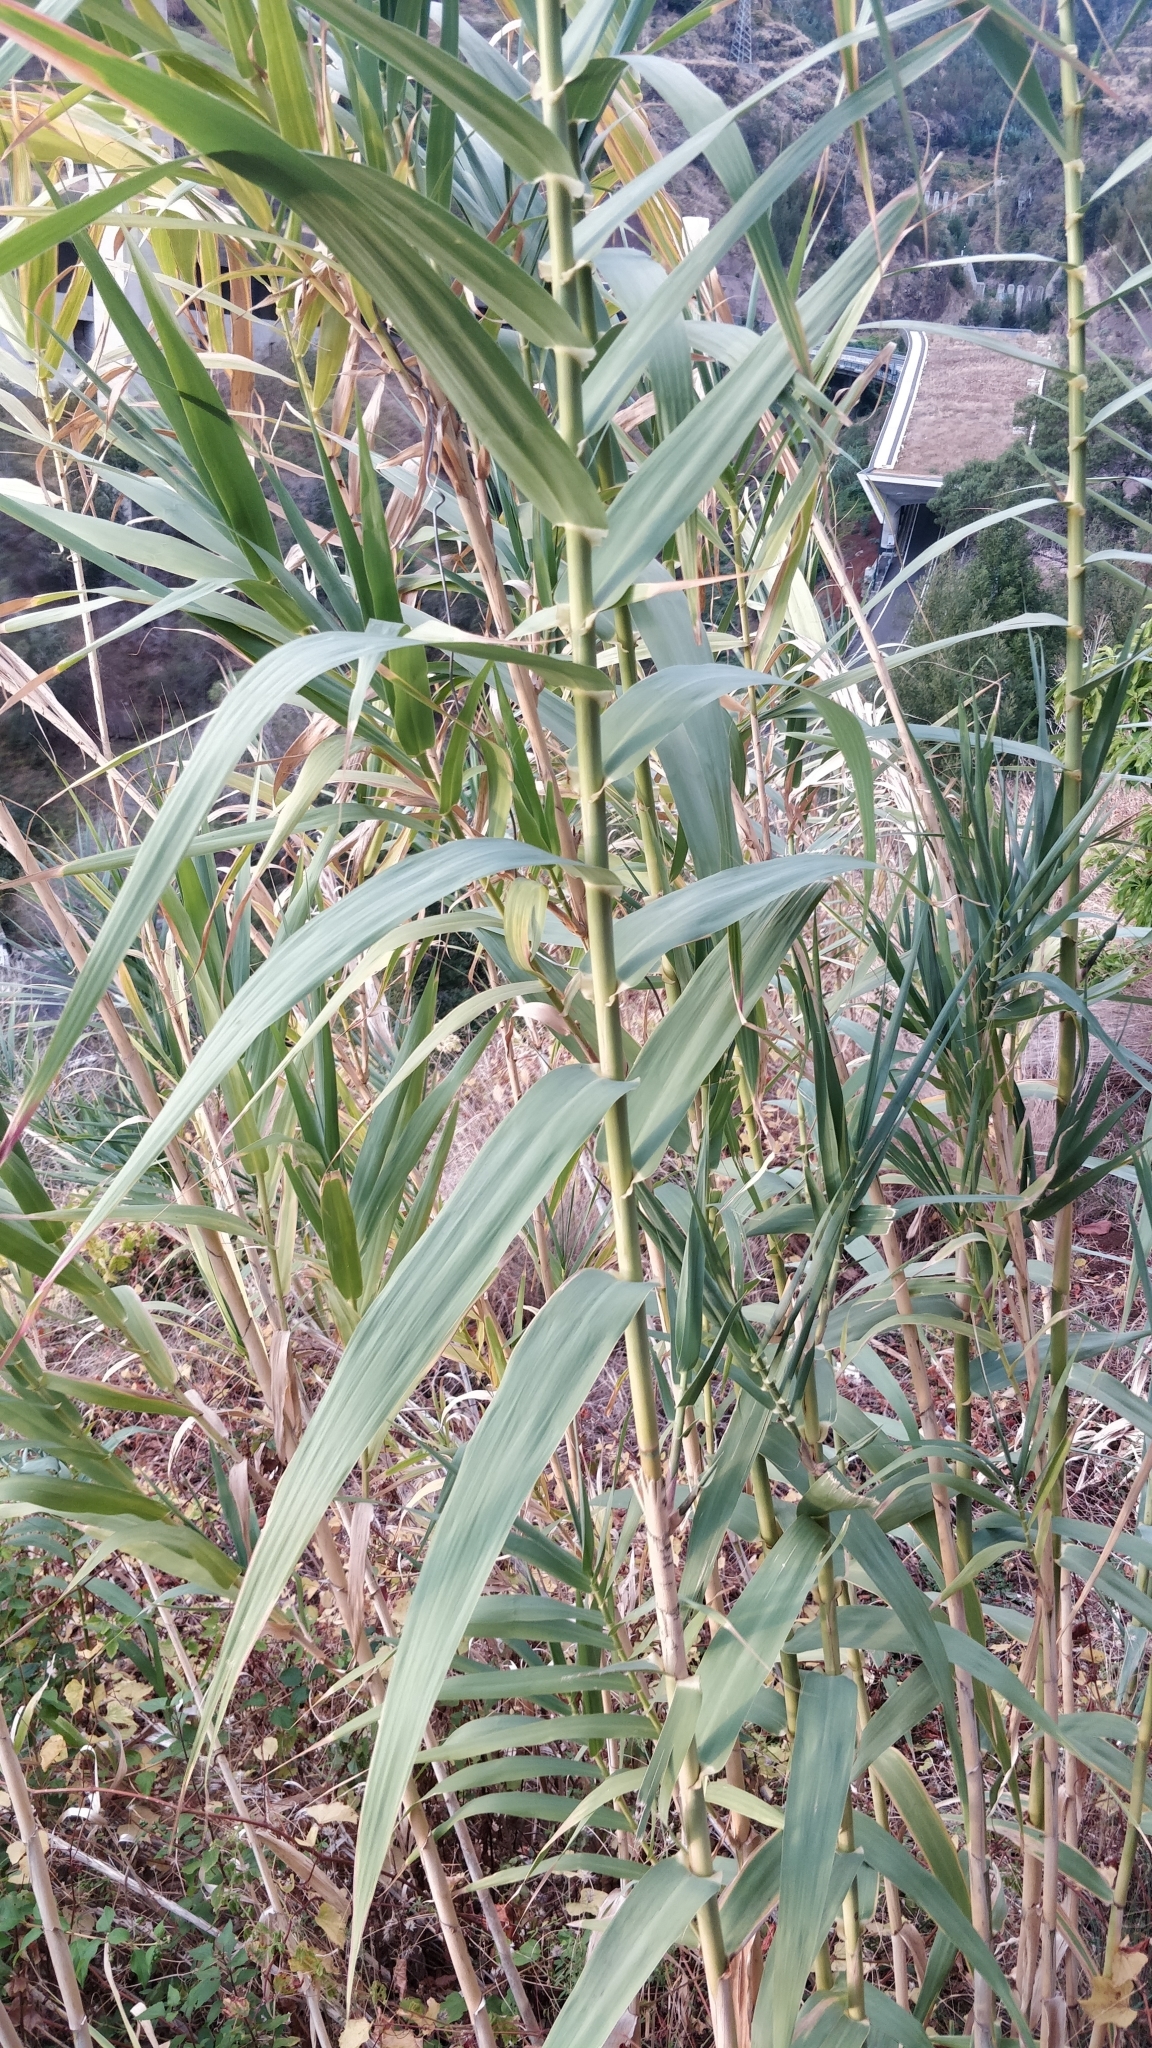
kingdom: Plantae
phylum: Tracheophyta
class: Liliopsida
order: Poales
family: Poaceae
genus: Arundo
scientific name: Arundo donax
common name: Giant reed
